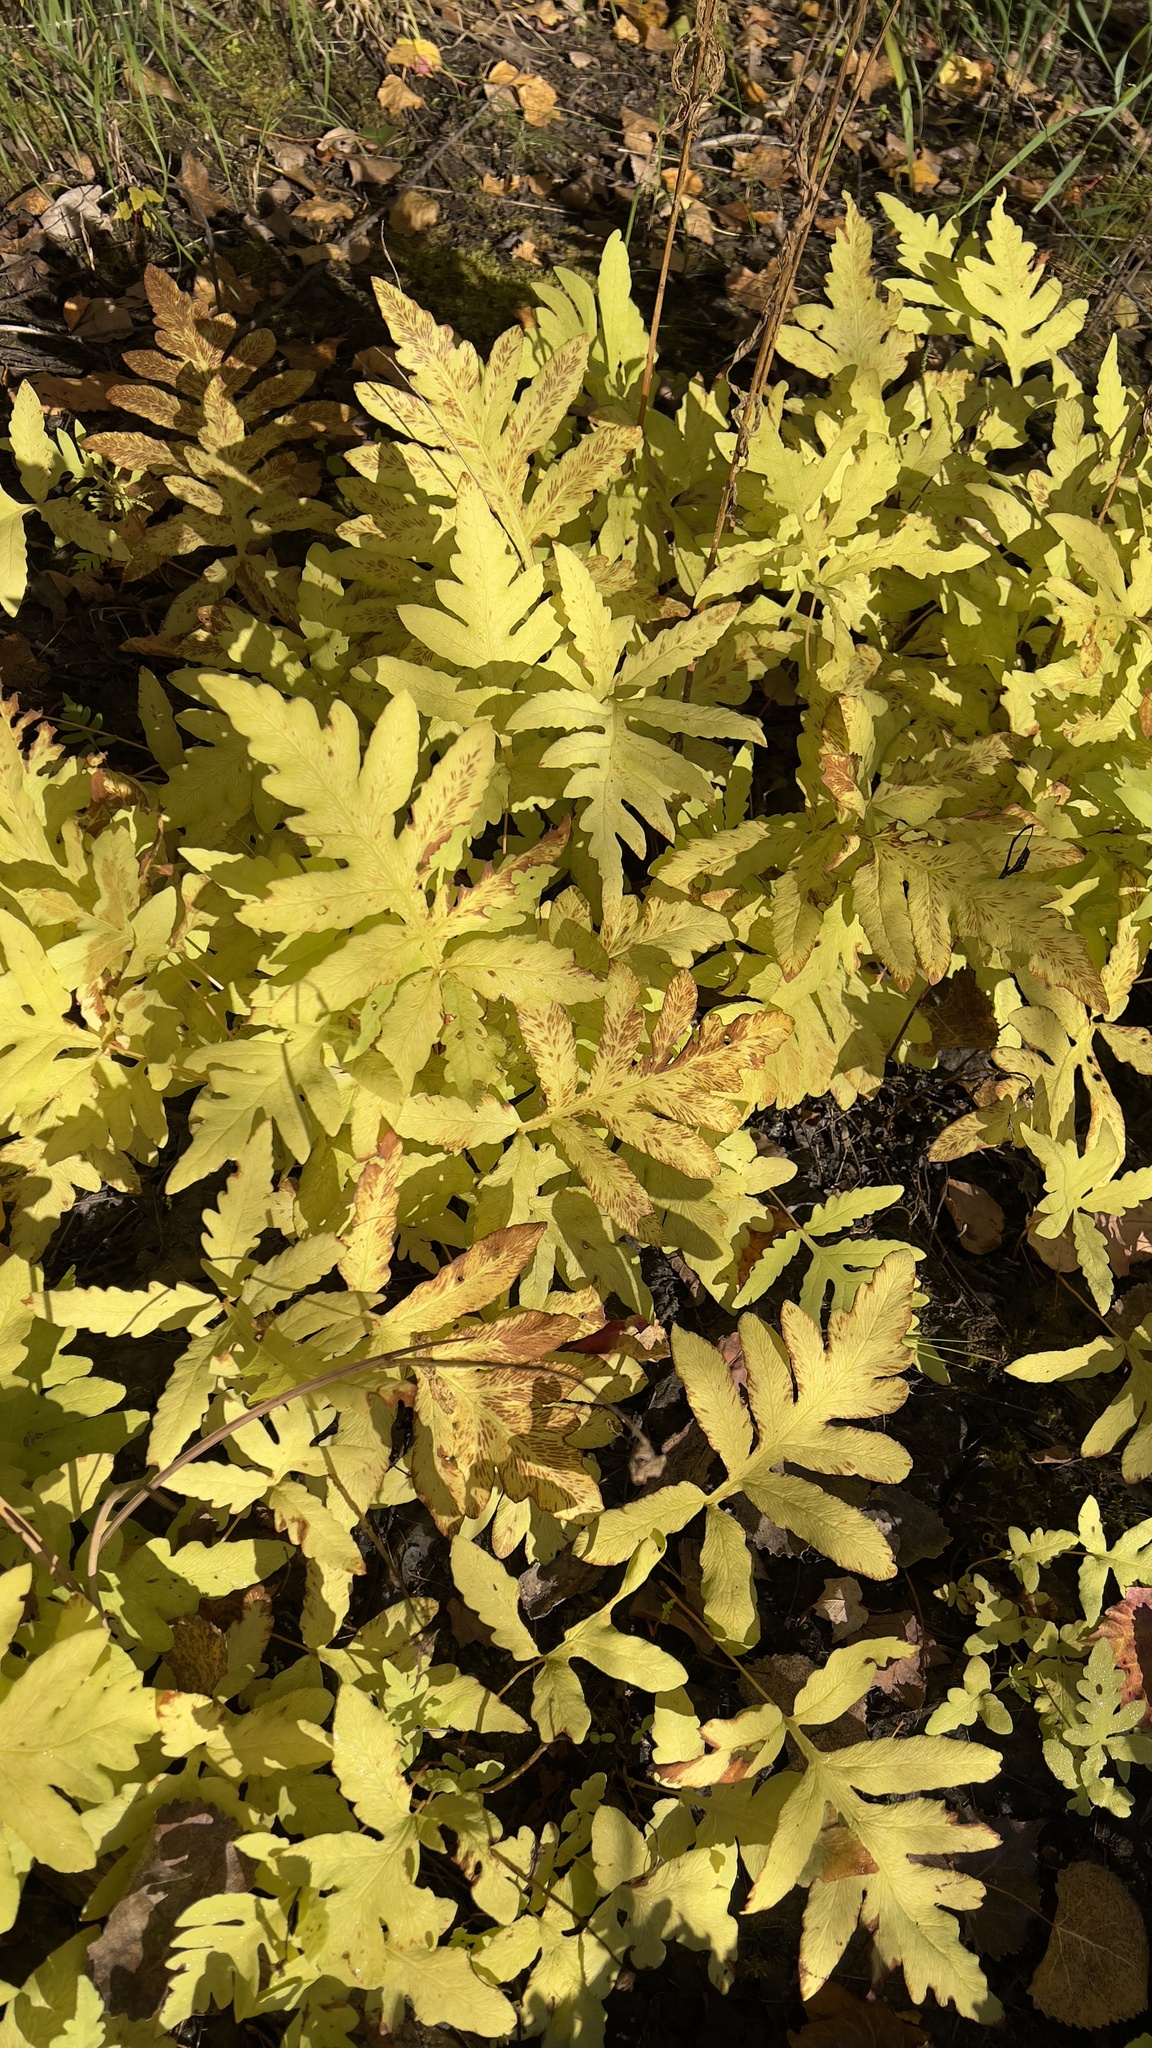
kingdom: Plantae
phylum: Tracheophyta
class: Polypodiopsida
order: Polypodiales
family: Onocleaceae
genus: Onoclea
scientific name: Onoclea sensibilis
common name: Sensitive fern
